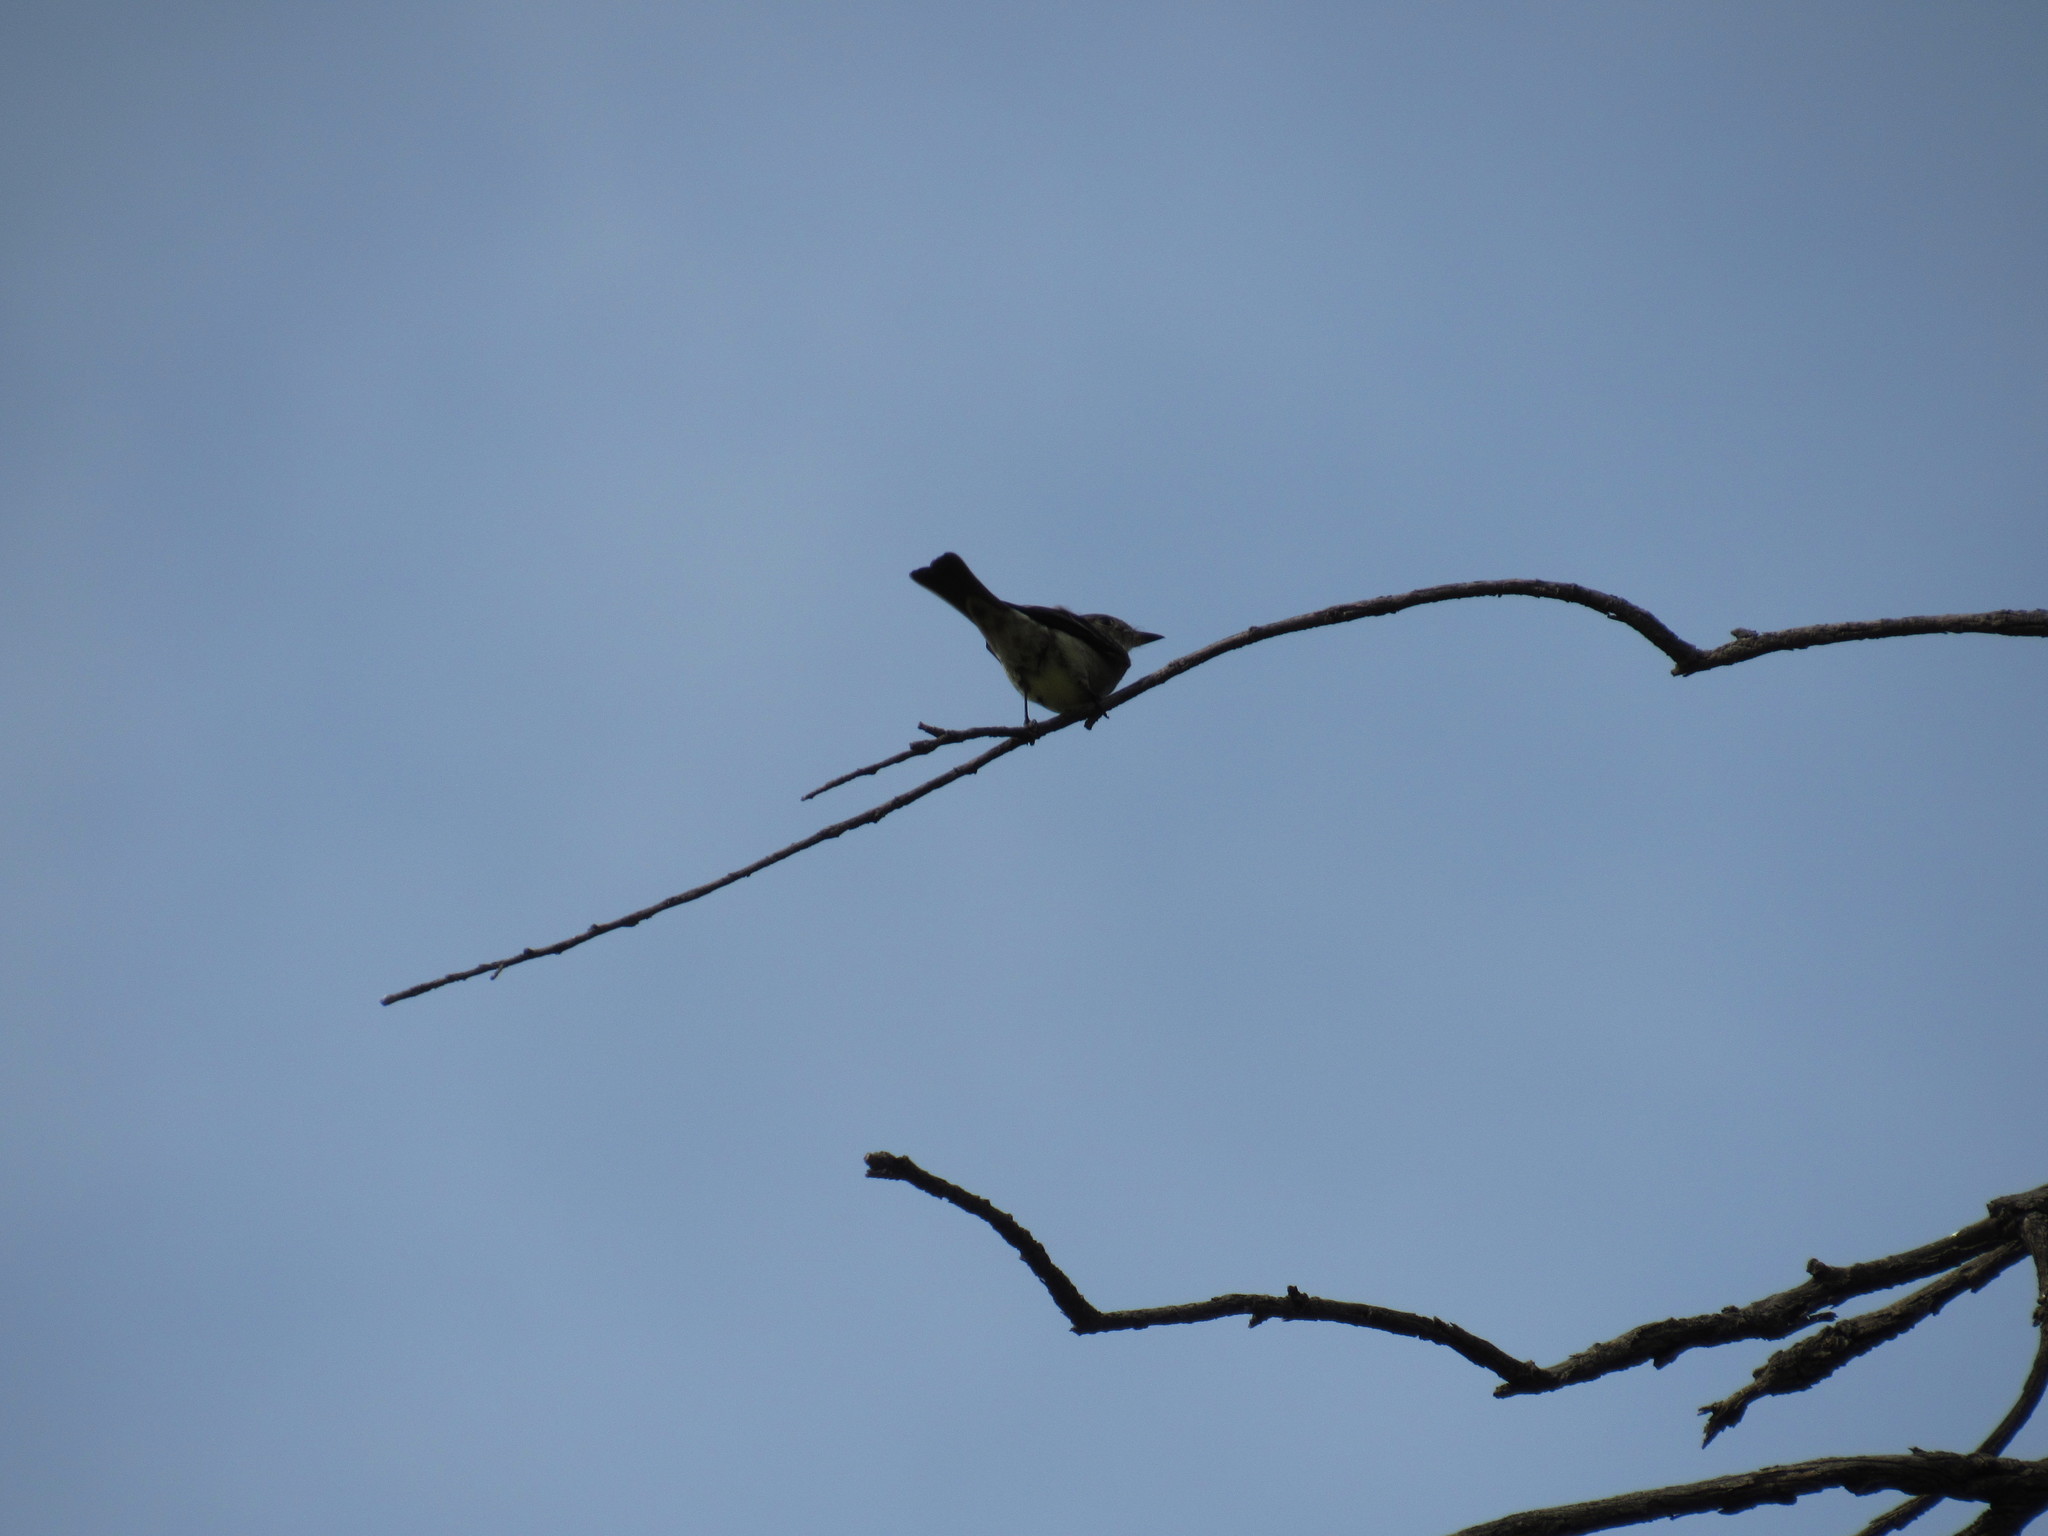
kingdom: Animalia
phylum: Chordata
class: Aves
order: Passeriformes
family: Tyrannidae
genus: Contopus
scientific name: Contopus sordidulus
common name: Western wood-pewee
